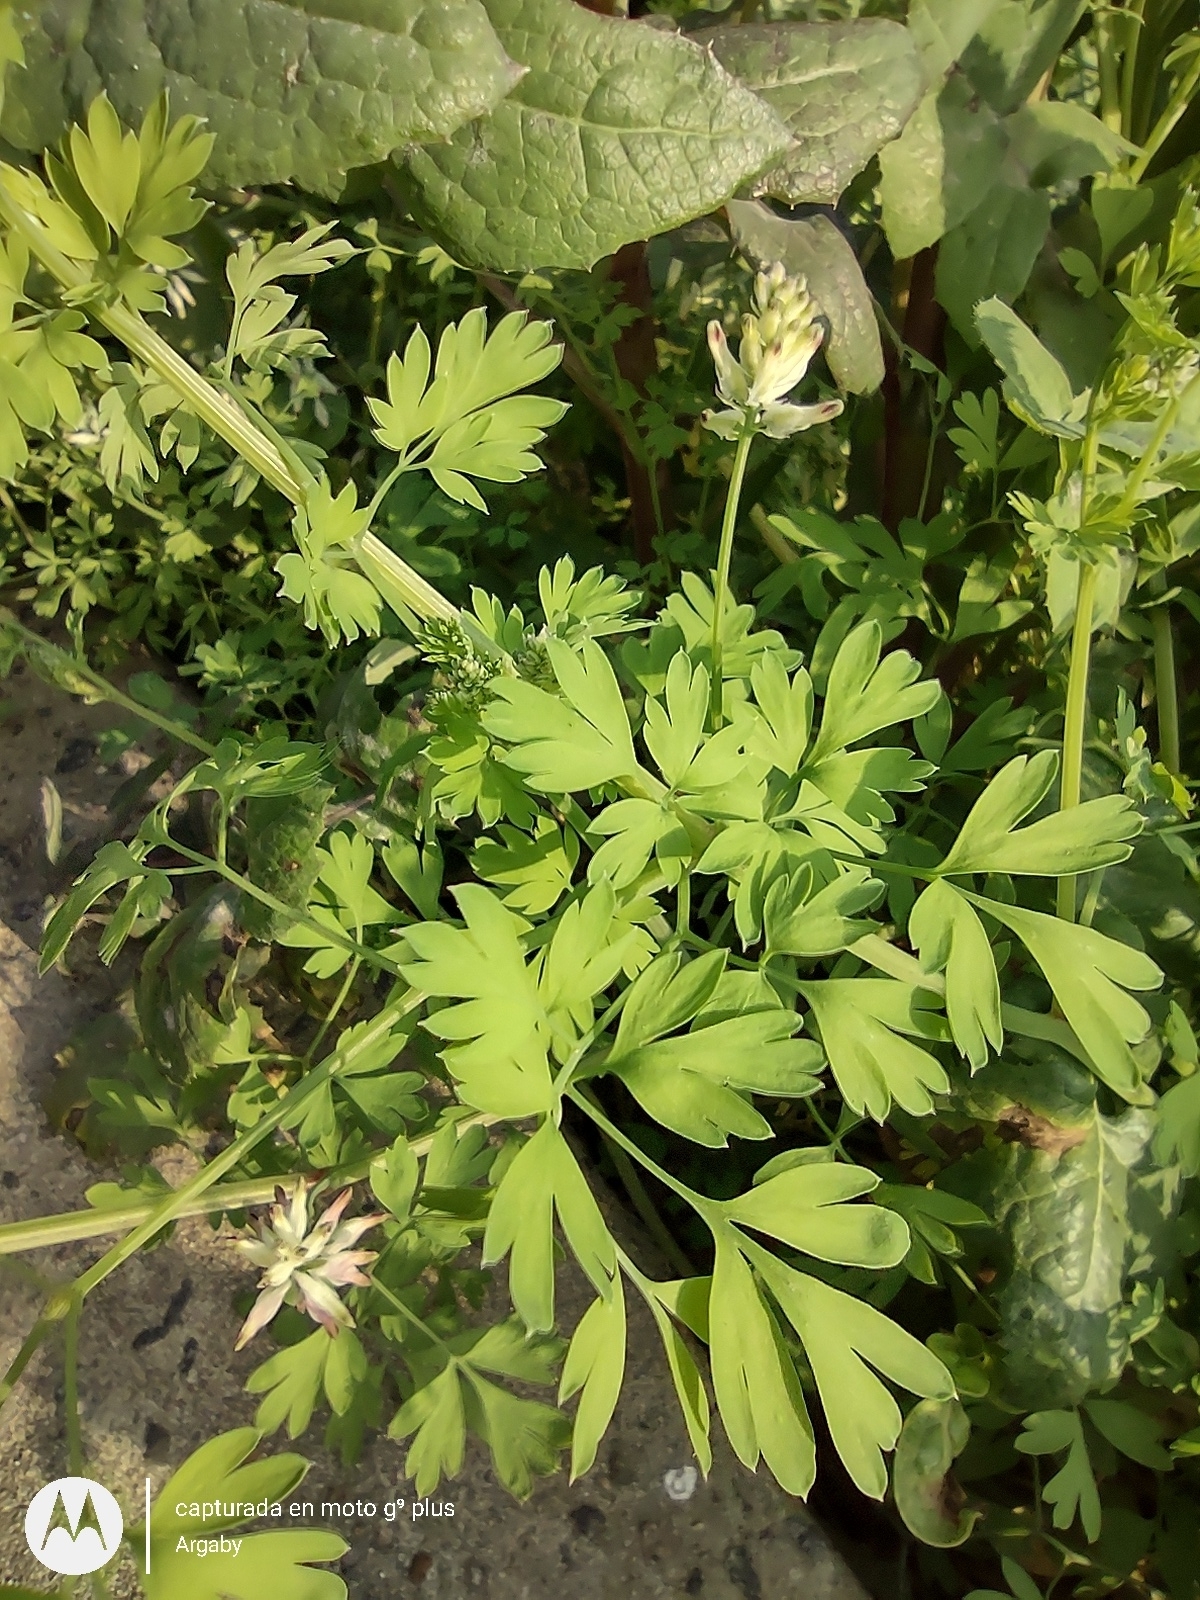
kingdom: Plantae
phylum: Tracheophyta
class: Magnoliopsida
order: Ranunculales
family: Papaveraceae
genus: Fumaria
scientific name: Fumaria capreolata
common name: White ramping-fumitory
